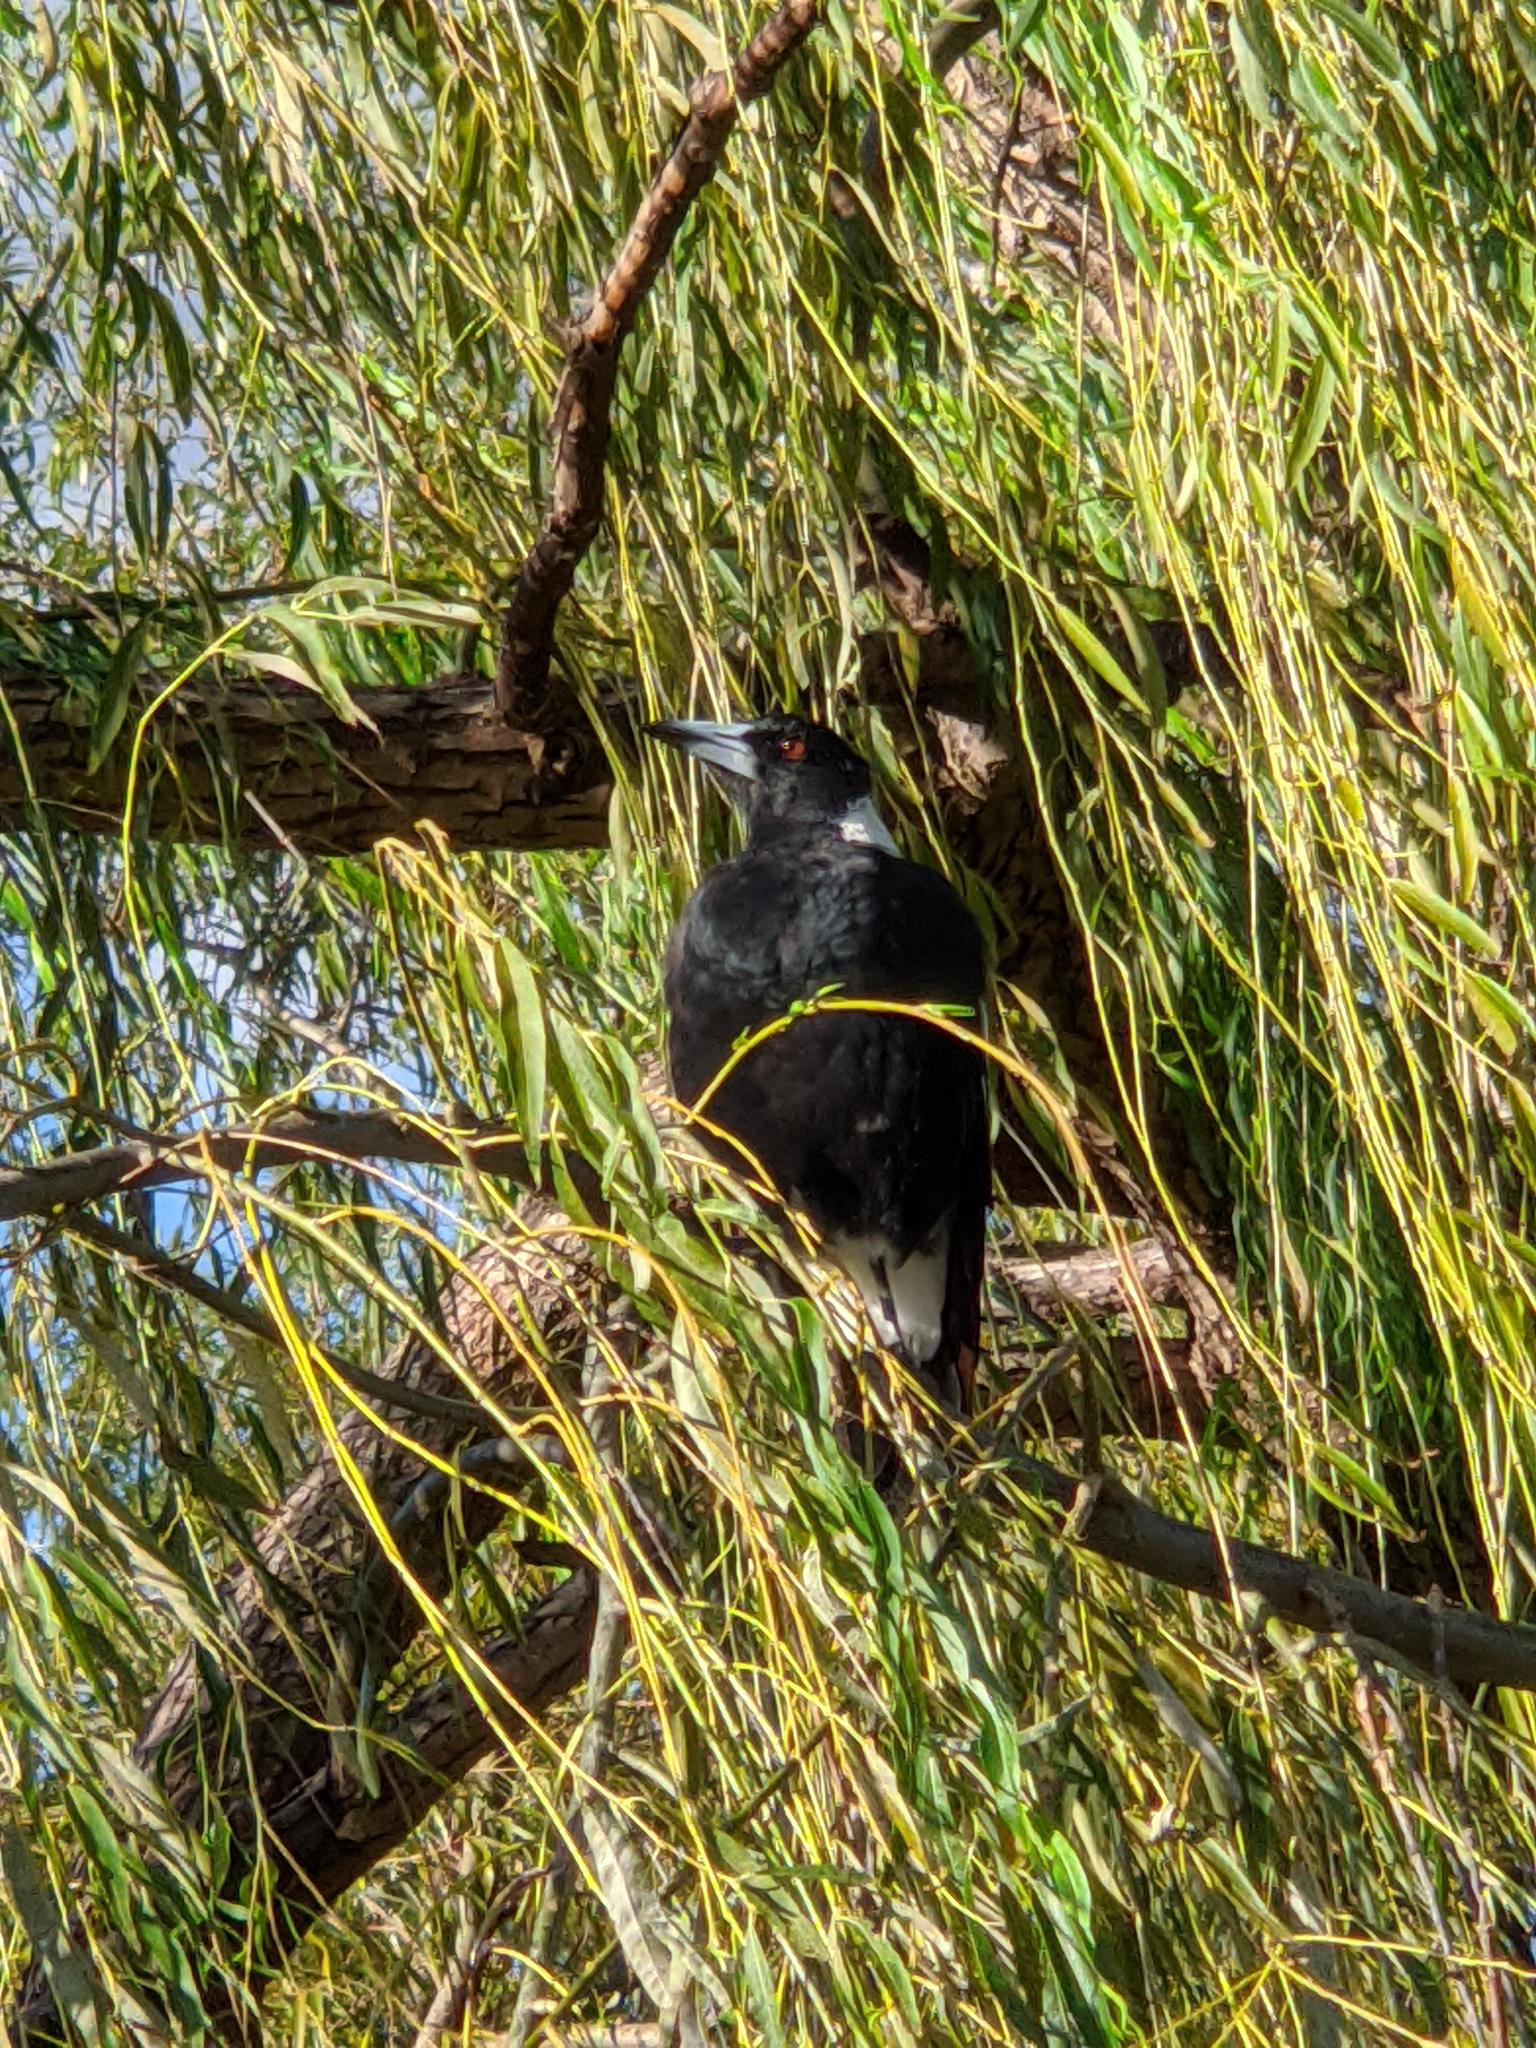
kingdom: Animalia
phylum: Chordata
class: Aves
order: Passeriformes
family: Cracticidae
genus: Gymnorhina
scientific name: Gymnorhina tibicen
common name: Australian magpie
